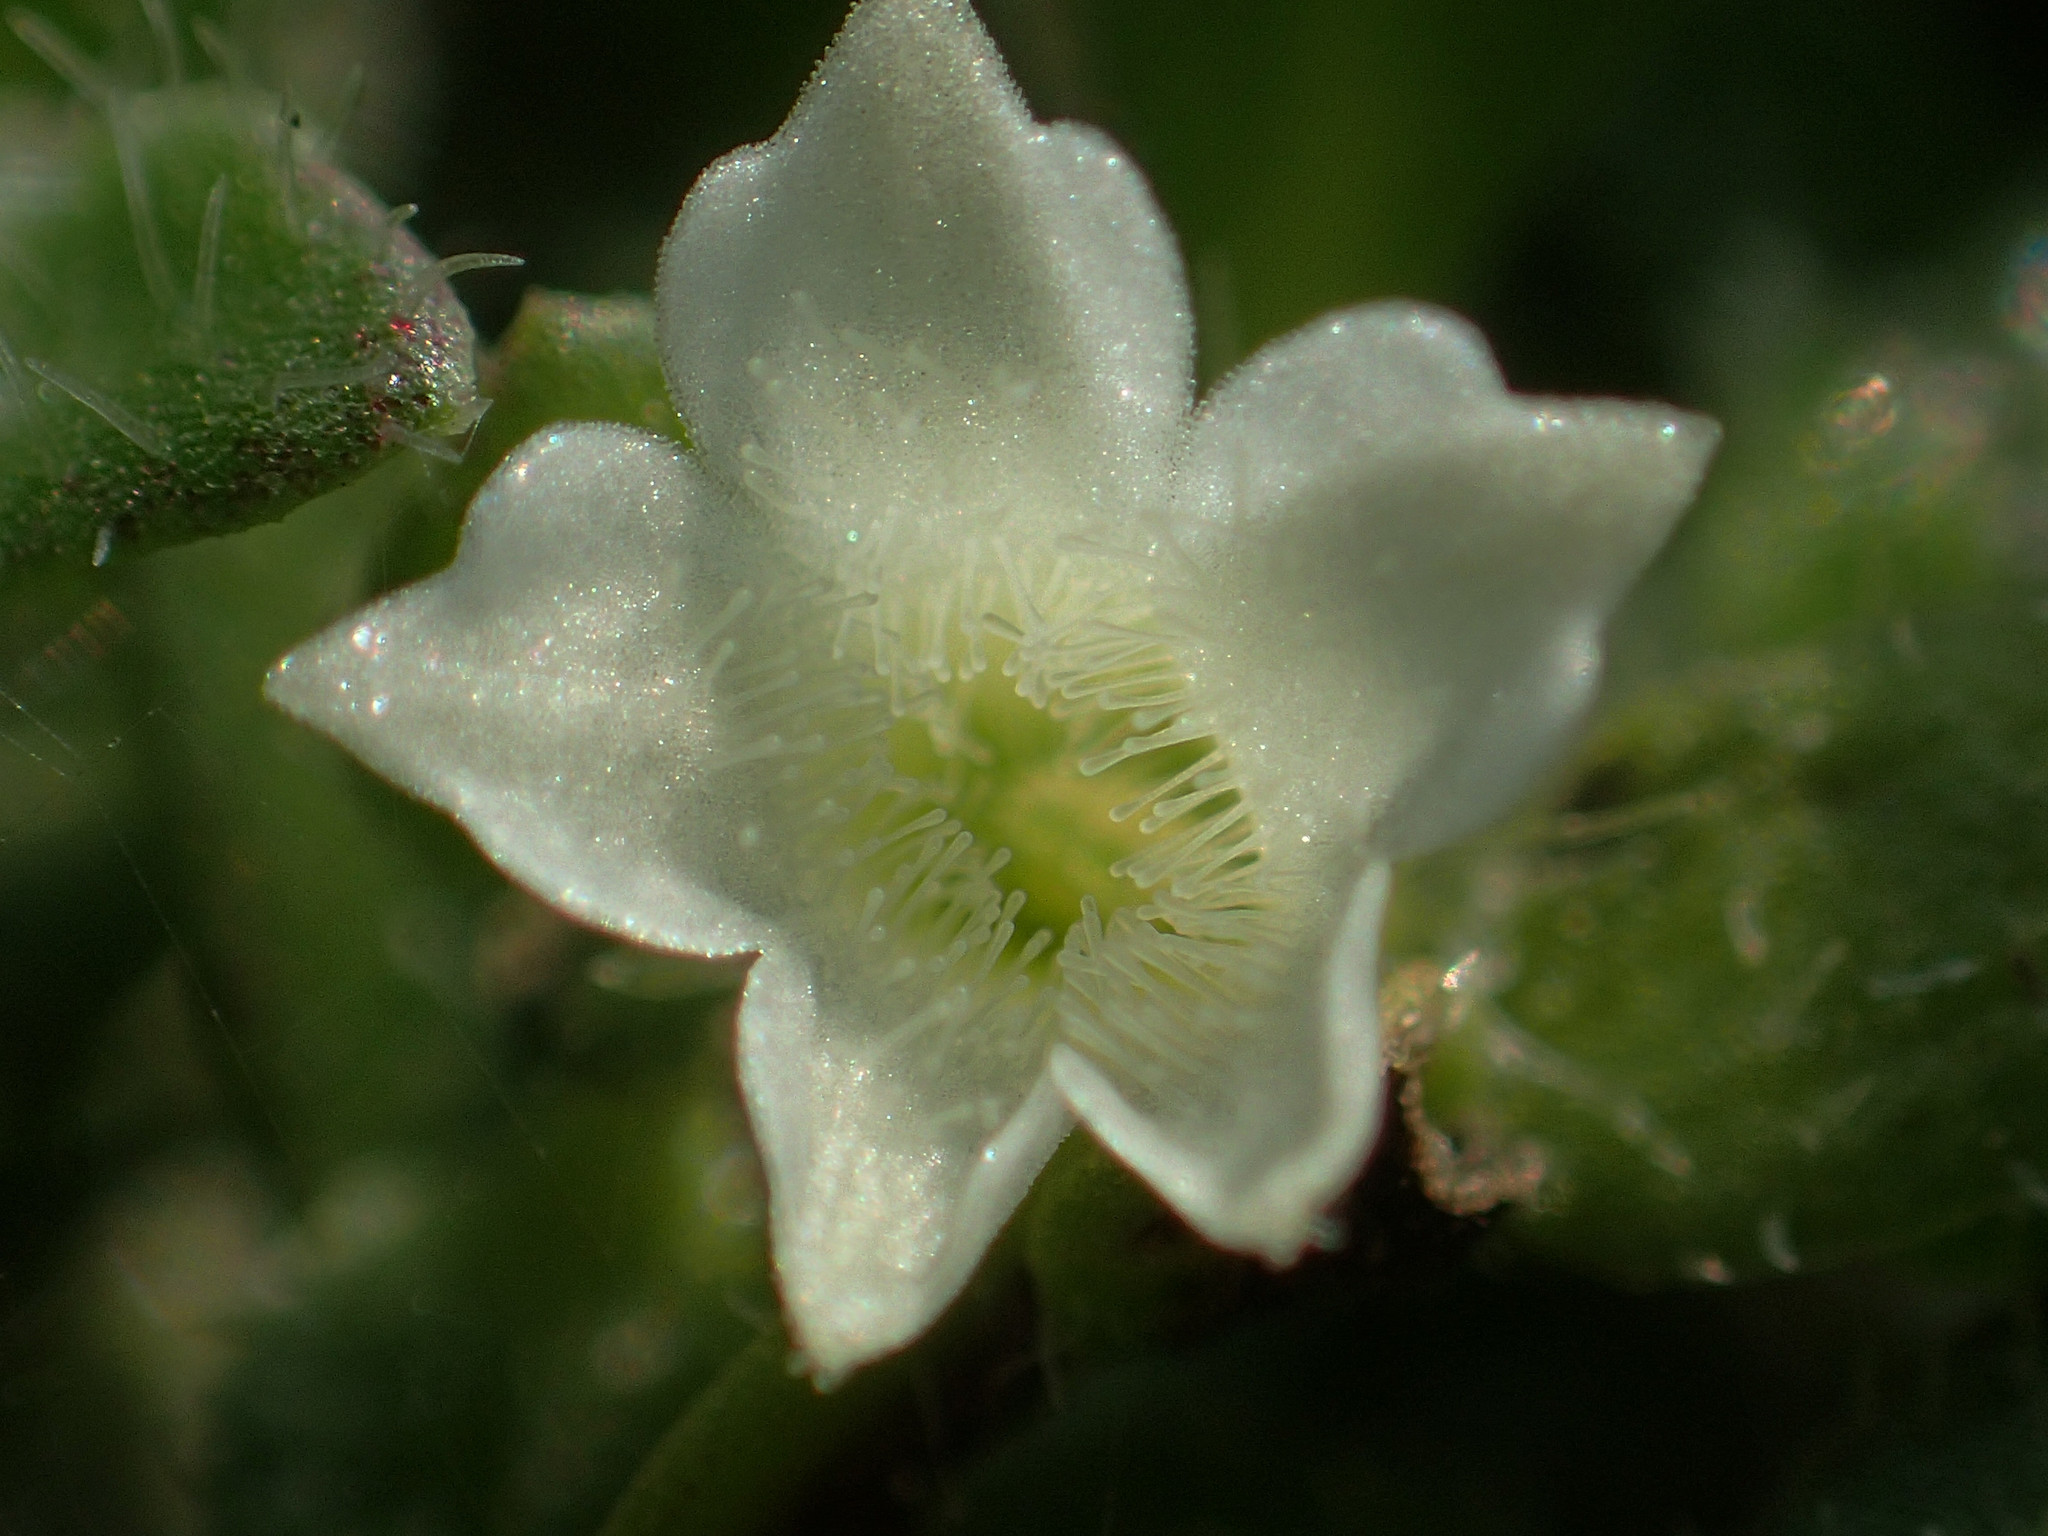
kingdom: Plantae
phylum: Tracheophyta
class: Magnoliopsida
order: Gentianales
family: Rubiaceae
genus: Dentella
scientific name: Dentella repens
